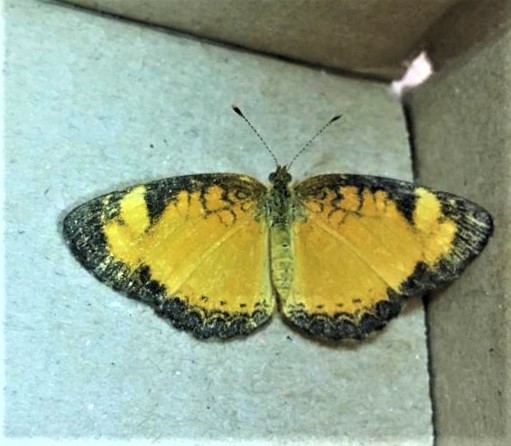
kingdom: Animalia
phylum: Arthropoda
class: Insecta
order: Lepidoptera
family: Nymphalidae
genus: Tegosa
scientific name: Tegosa claudina
